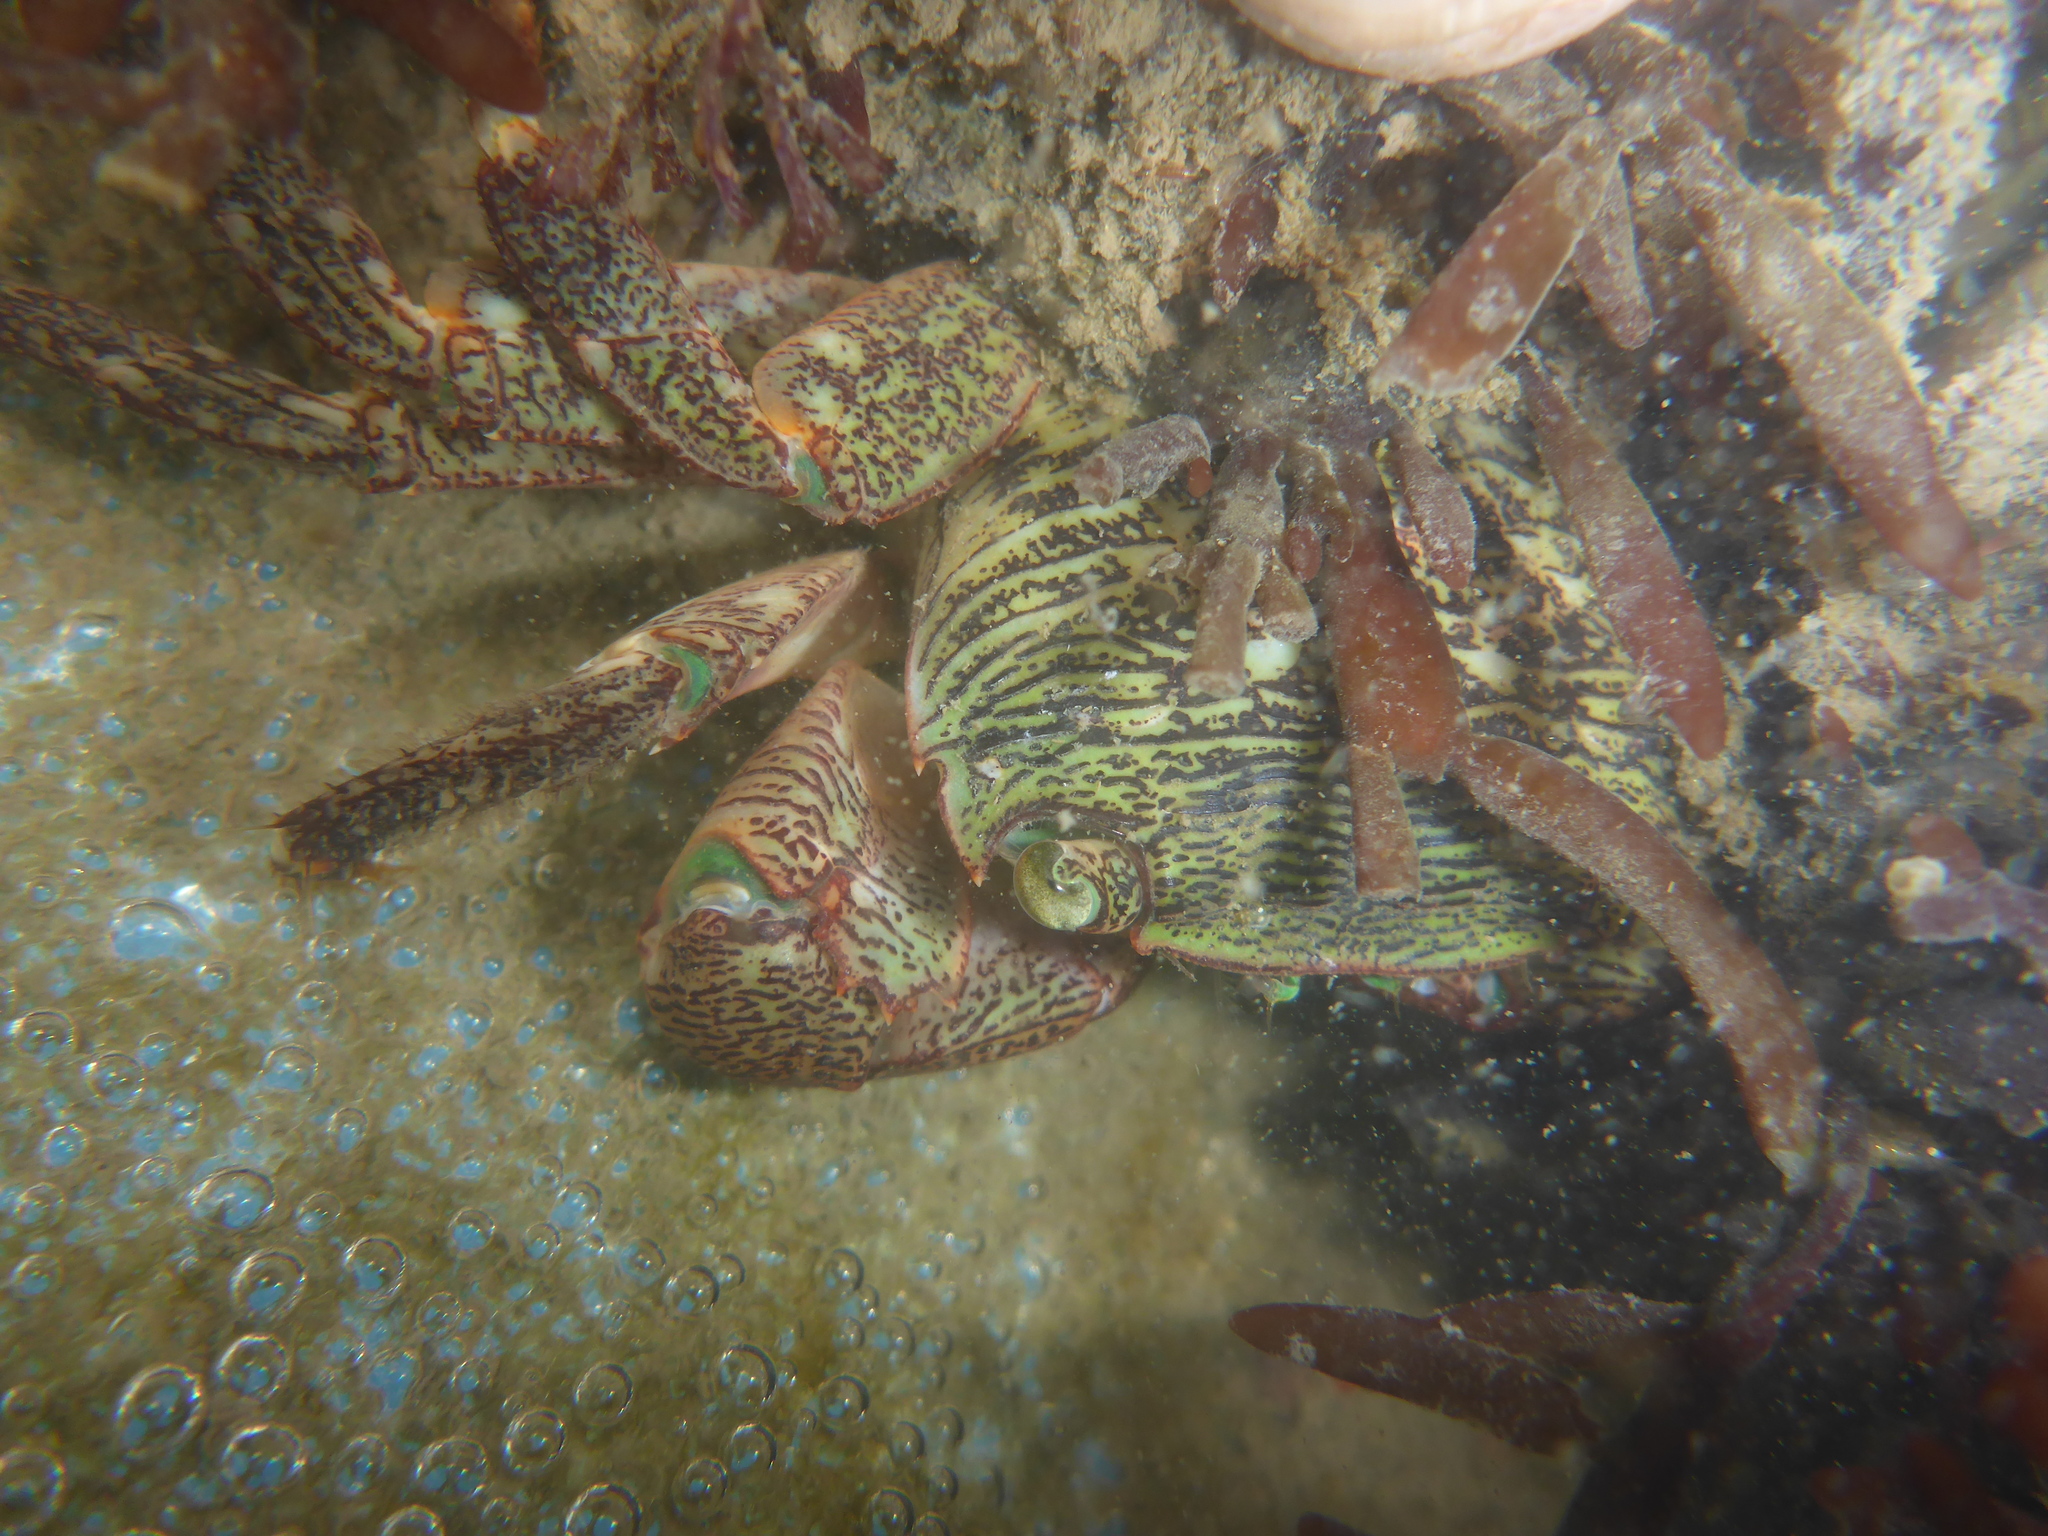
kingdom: Animalia
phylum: Arthropoda
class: Malacostraca
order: Decapoda
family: Grapsidae
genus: Pachygrapsus
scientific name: Pachygrapsus crassipes
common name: Striped shore crab
